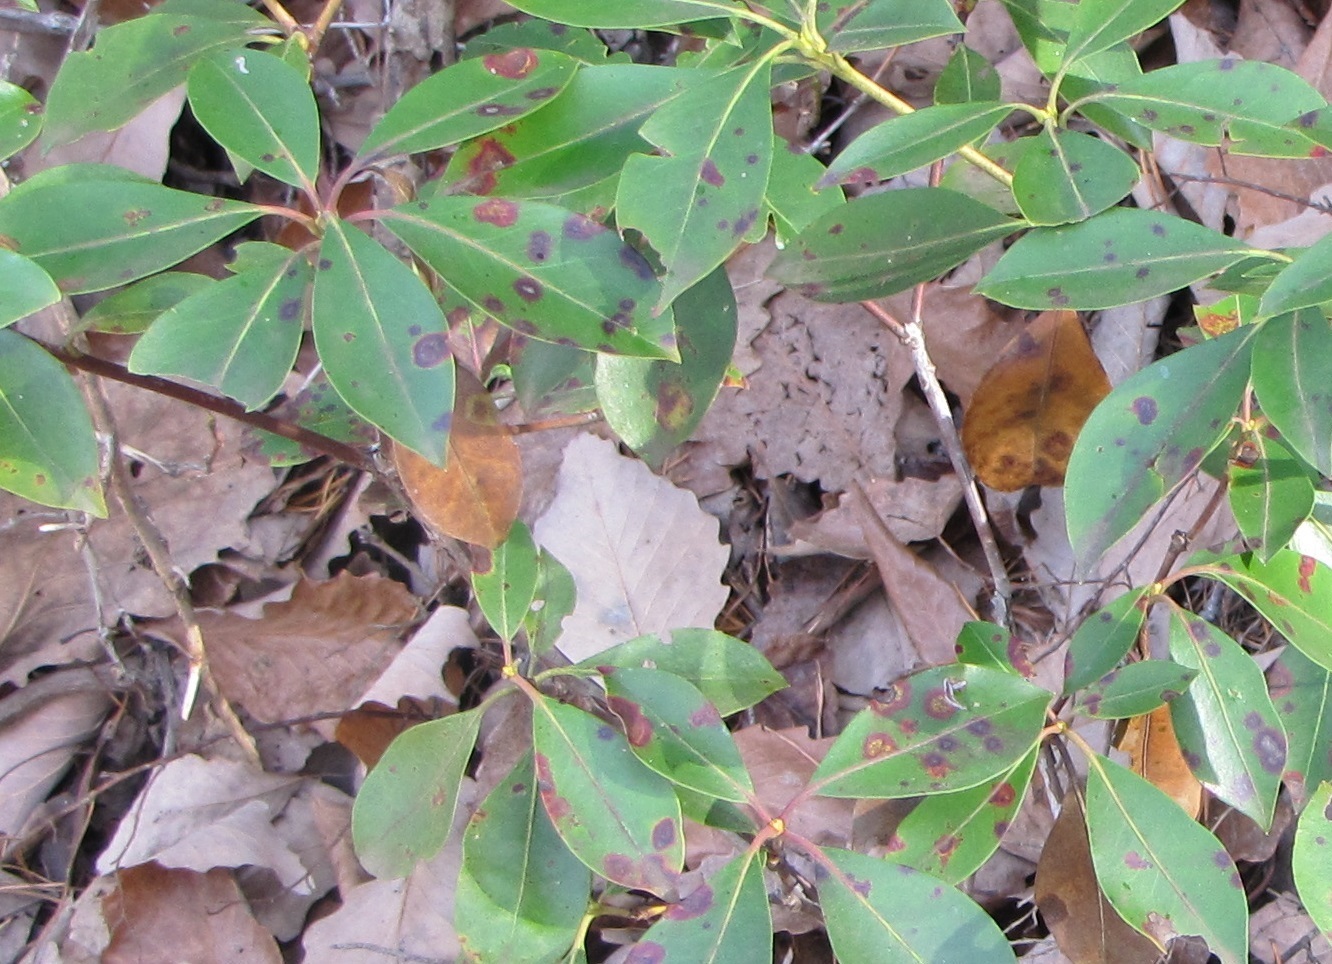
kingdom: Fungi
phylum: Ascomycota
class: Dothideomycetes
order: Mycosphaerellales
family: Mycosphaerellaceae
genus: Mycosphaerella
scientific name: Mycosphaerella colorata
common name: Mountain laurel leaf spot
